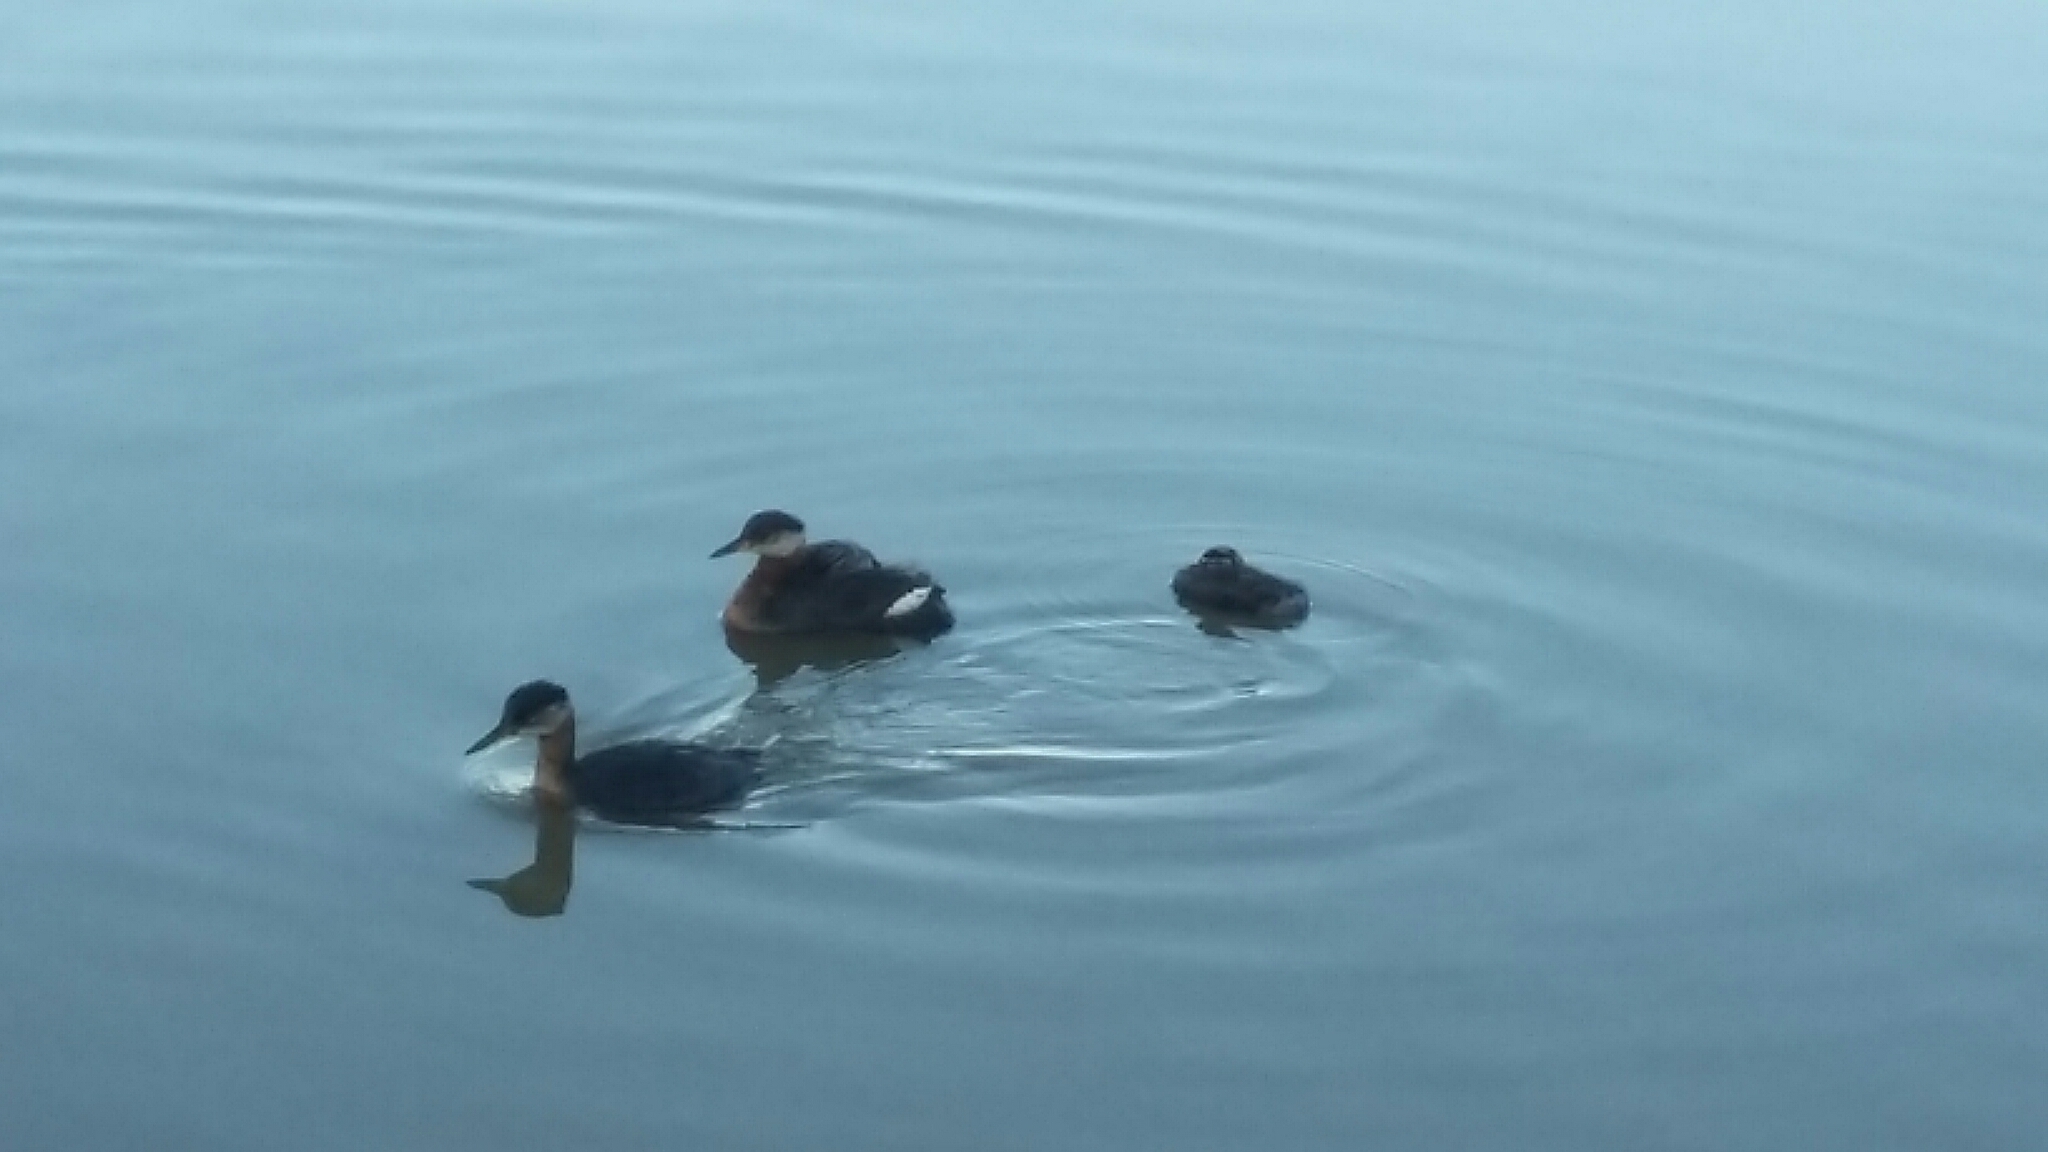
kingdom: Animalia
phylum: Chordata
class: Aves
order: Podicipediformes
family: Podicipedidae
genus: Podiceps
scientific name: Podiceps grisegena
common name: Red-necked grebe
